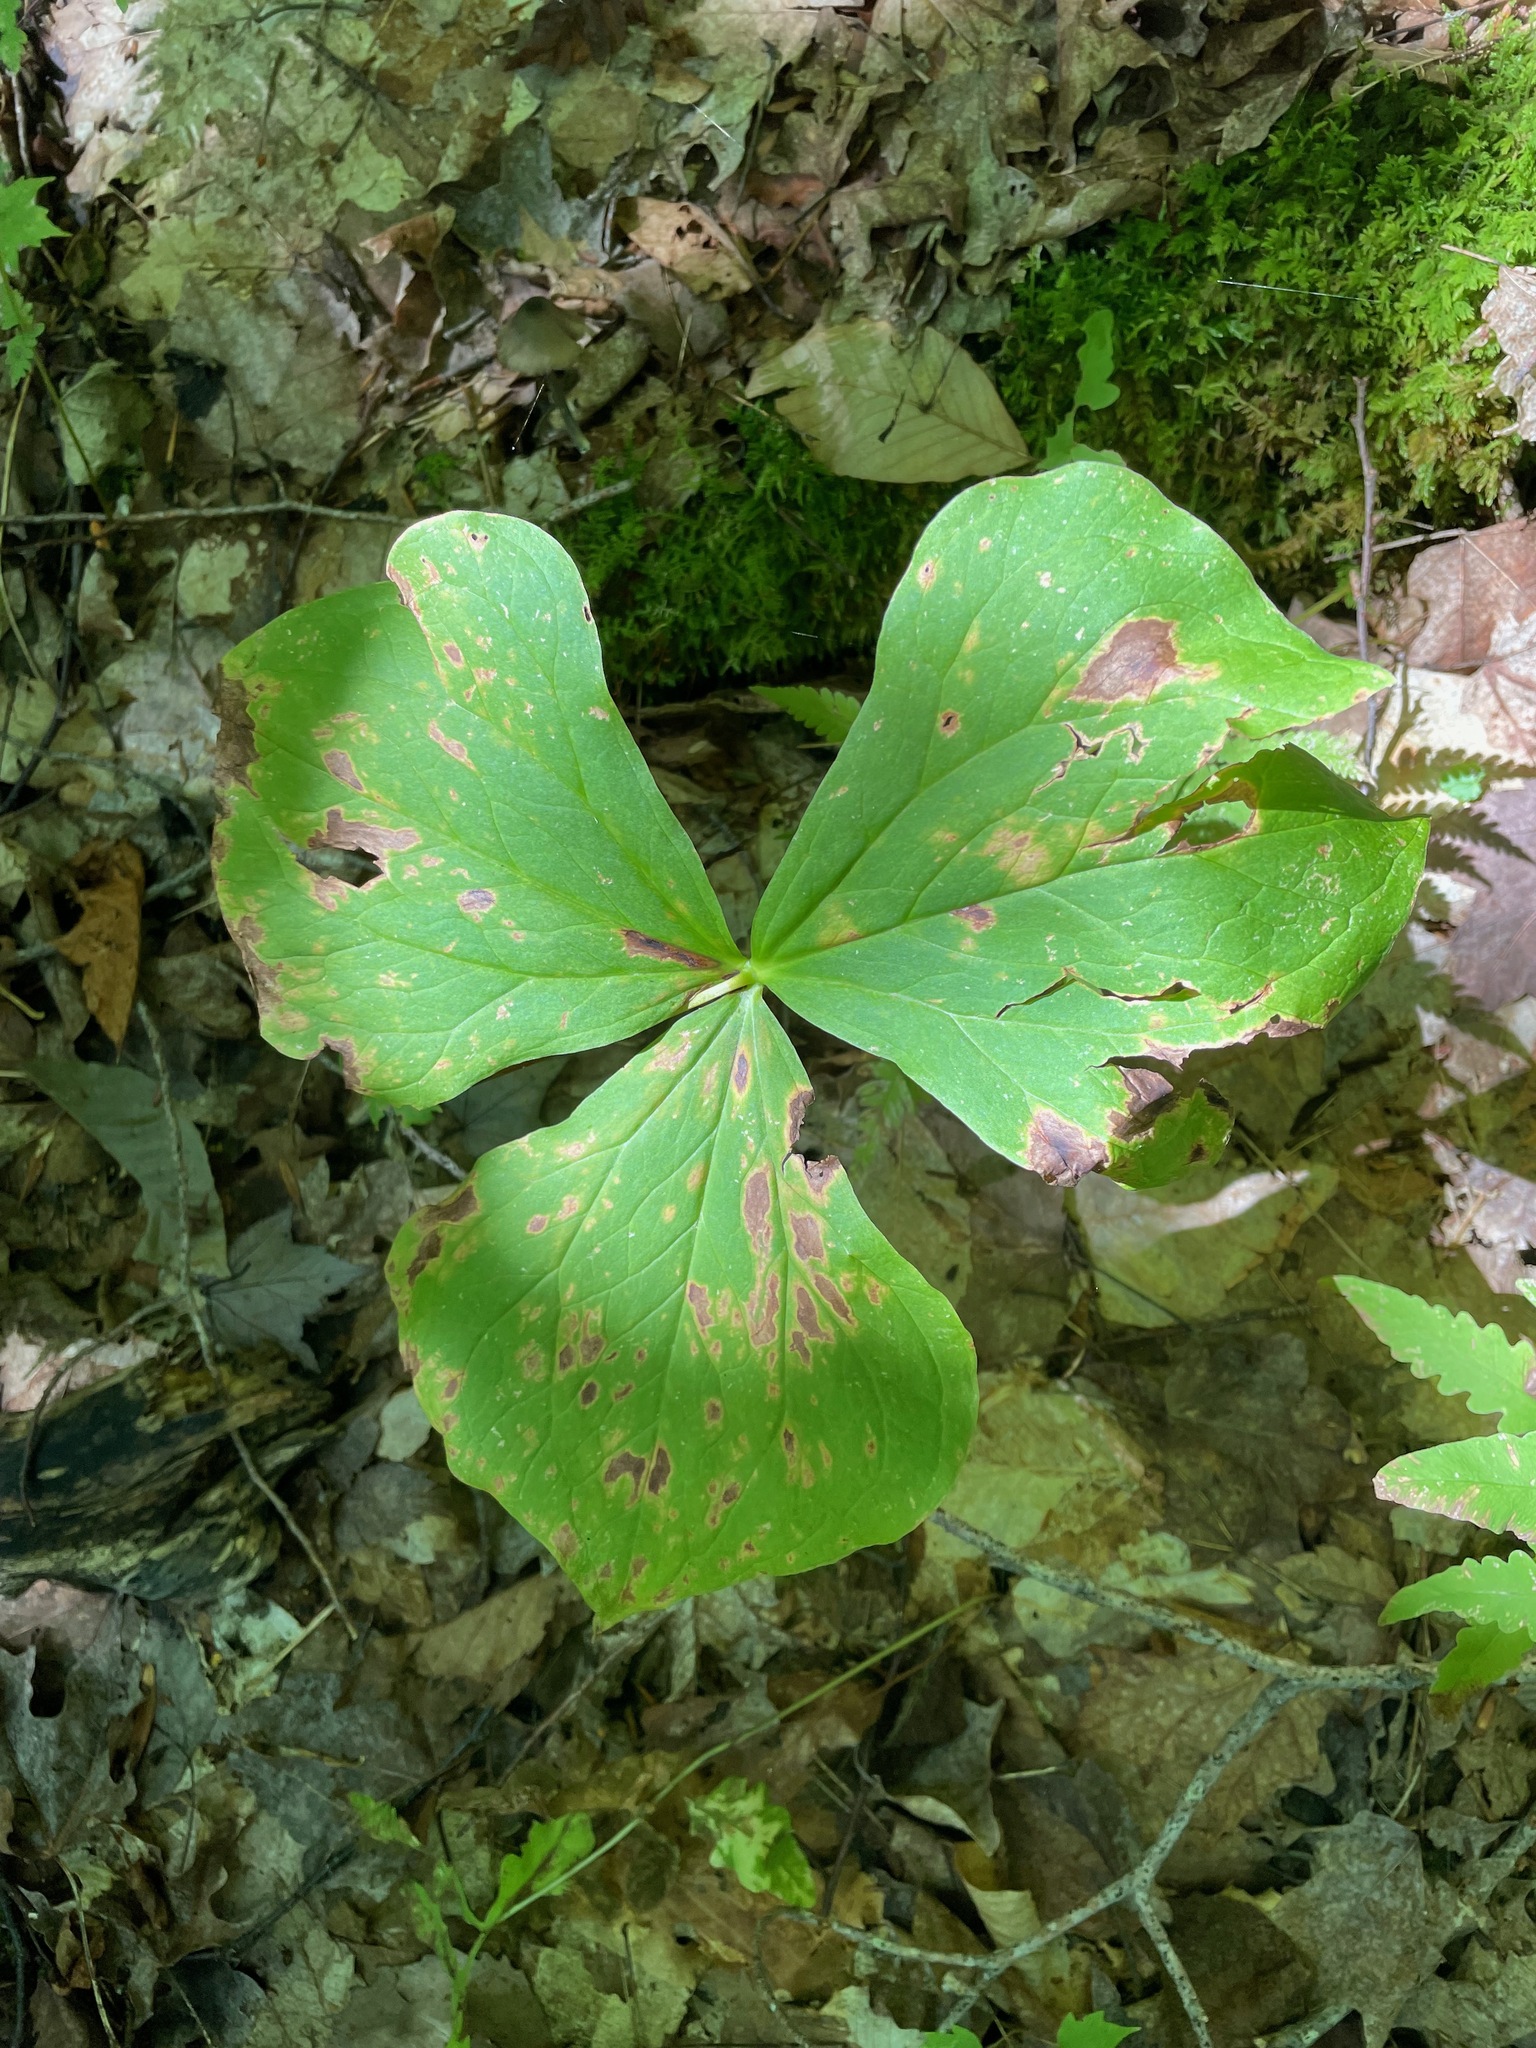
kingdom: Plantae
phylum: Tracheophyta
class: Liliopsida
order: Liliales
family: Melanthiaceae
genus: Trillium
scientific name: Trillium erectum
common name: Purple trillium
